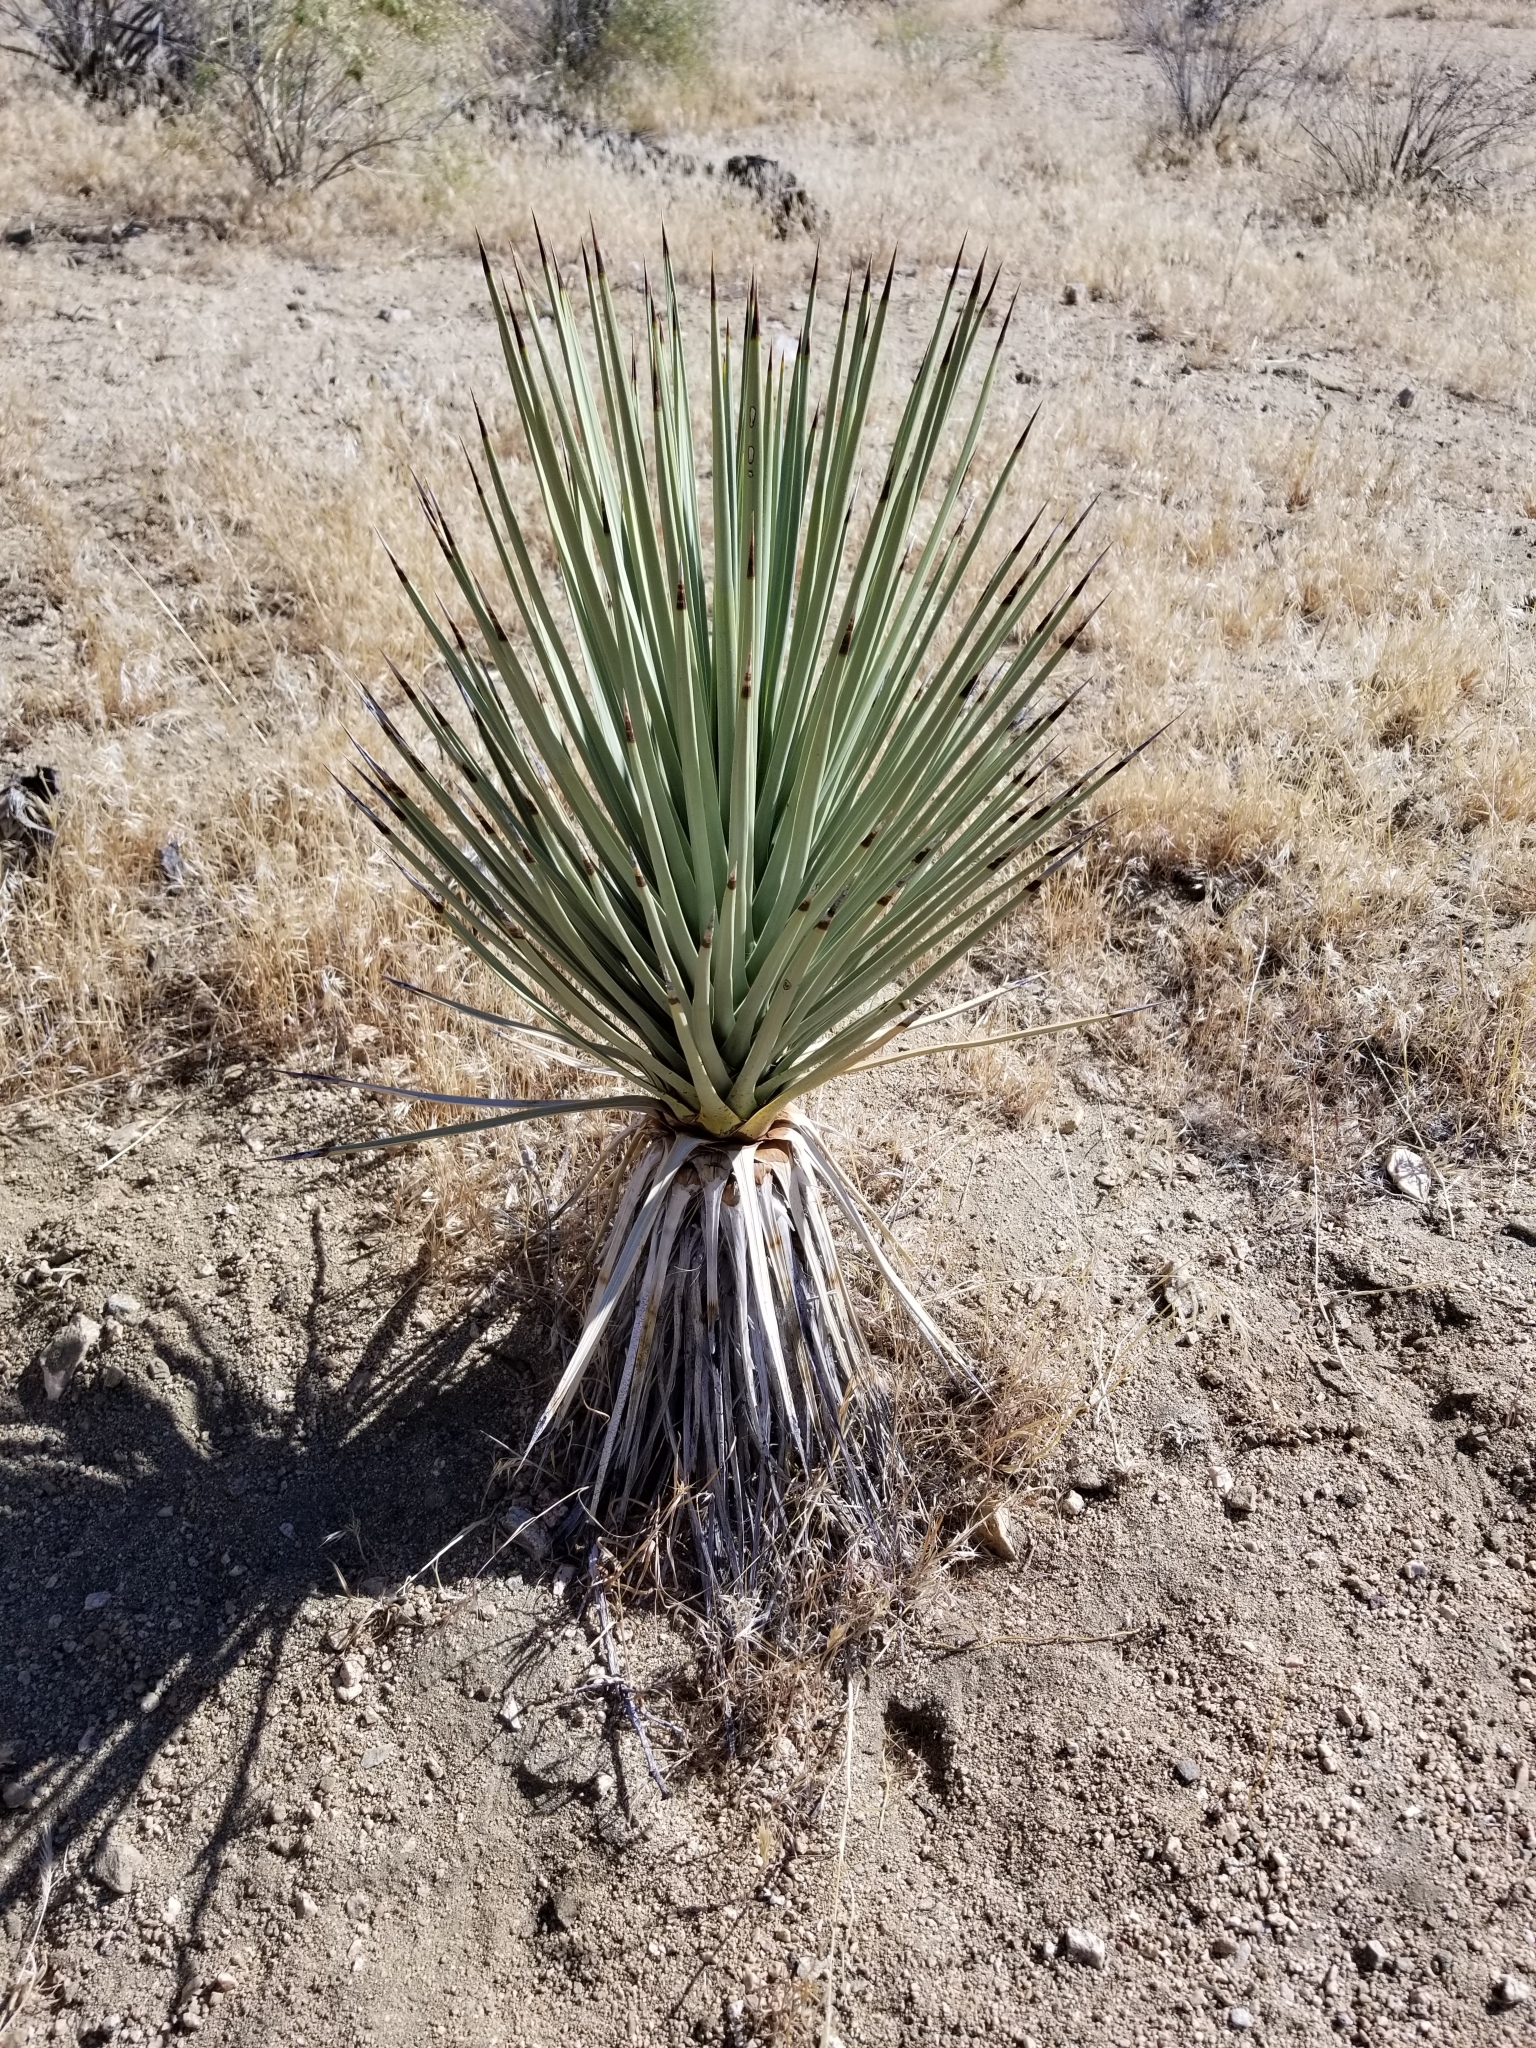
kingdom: Plantae
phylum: Tracheophyta
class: Liliopsida
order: Asparagales
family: Asparagaceae
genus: Yucca
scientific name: Yucca brevifolia
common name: Joshua tree
